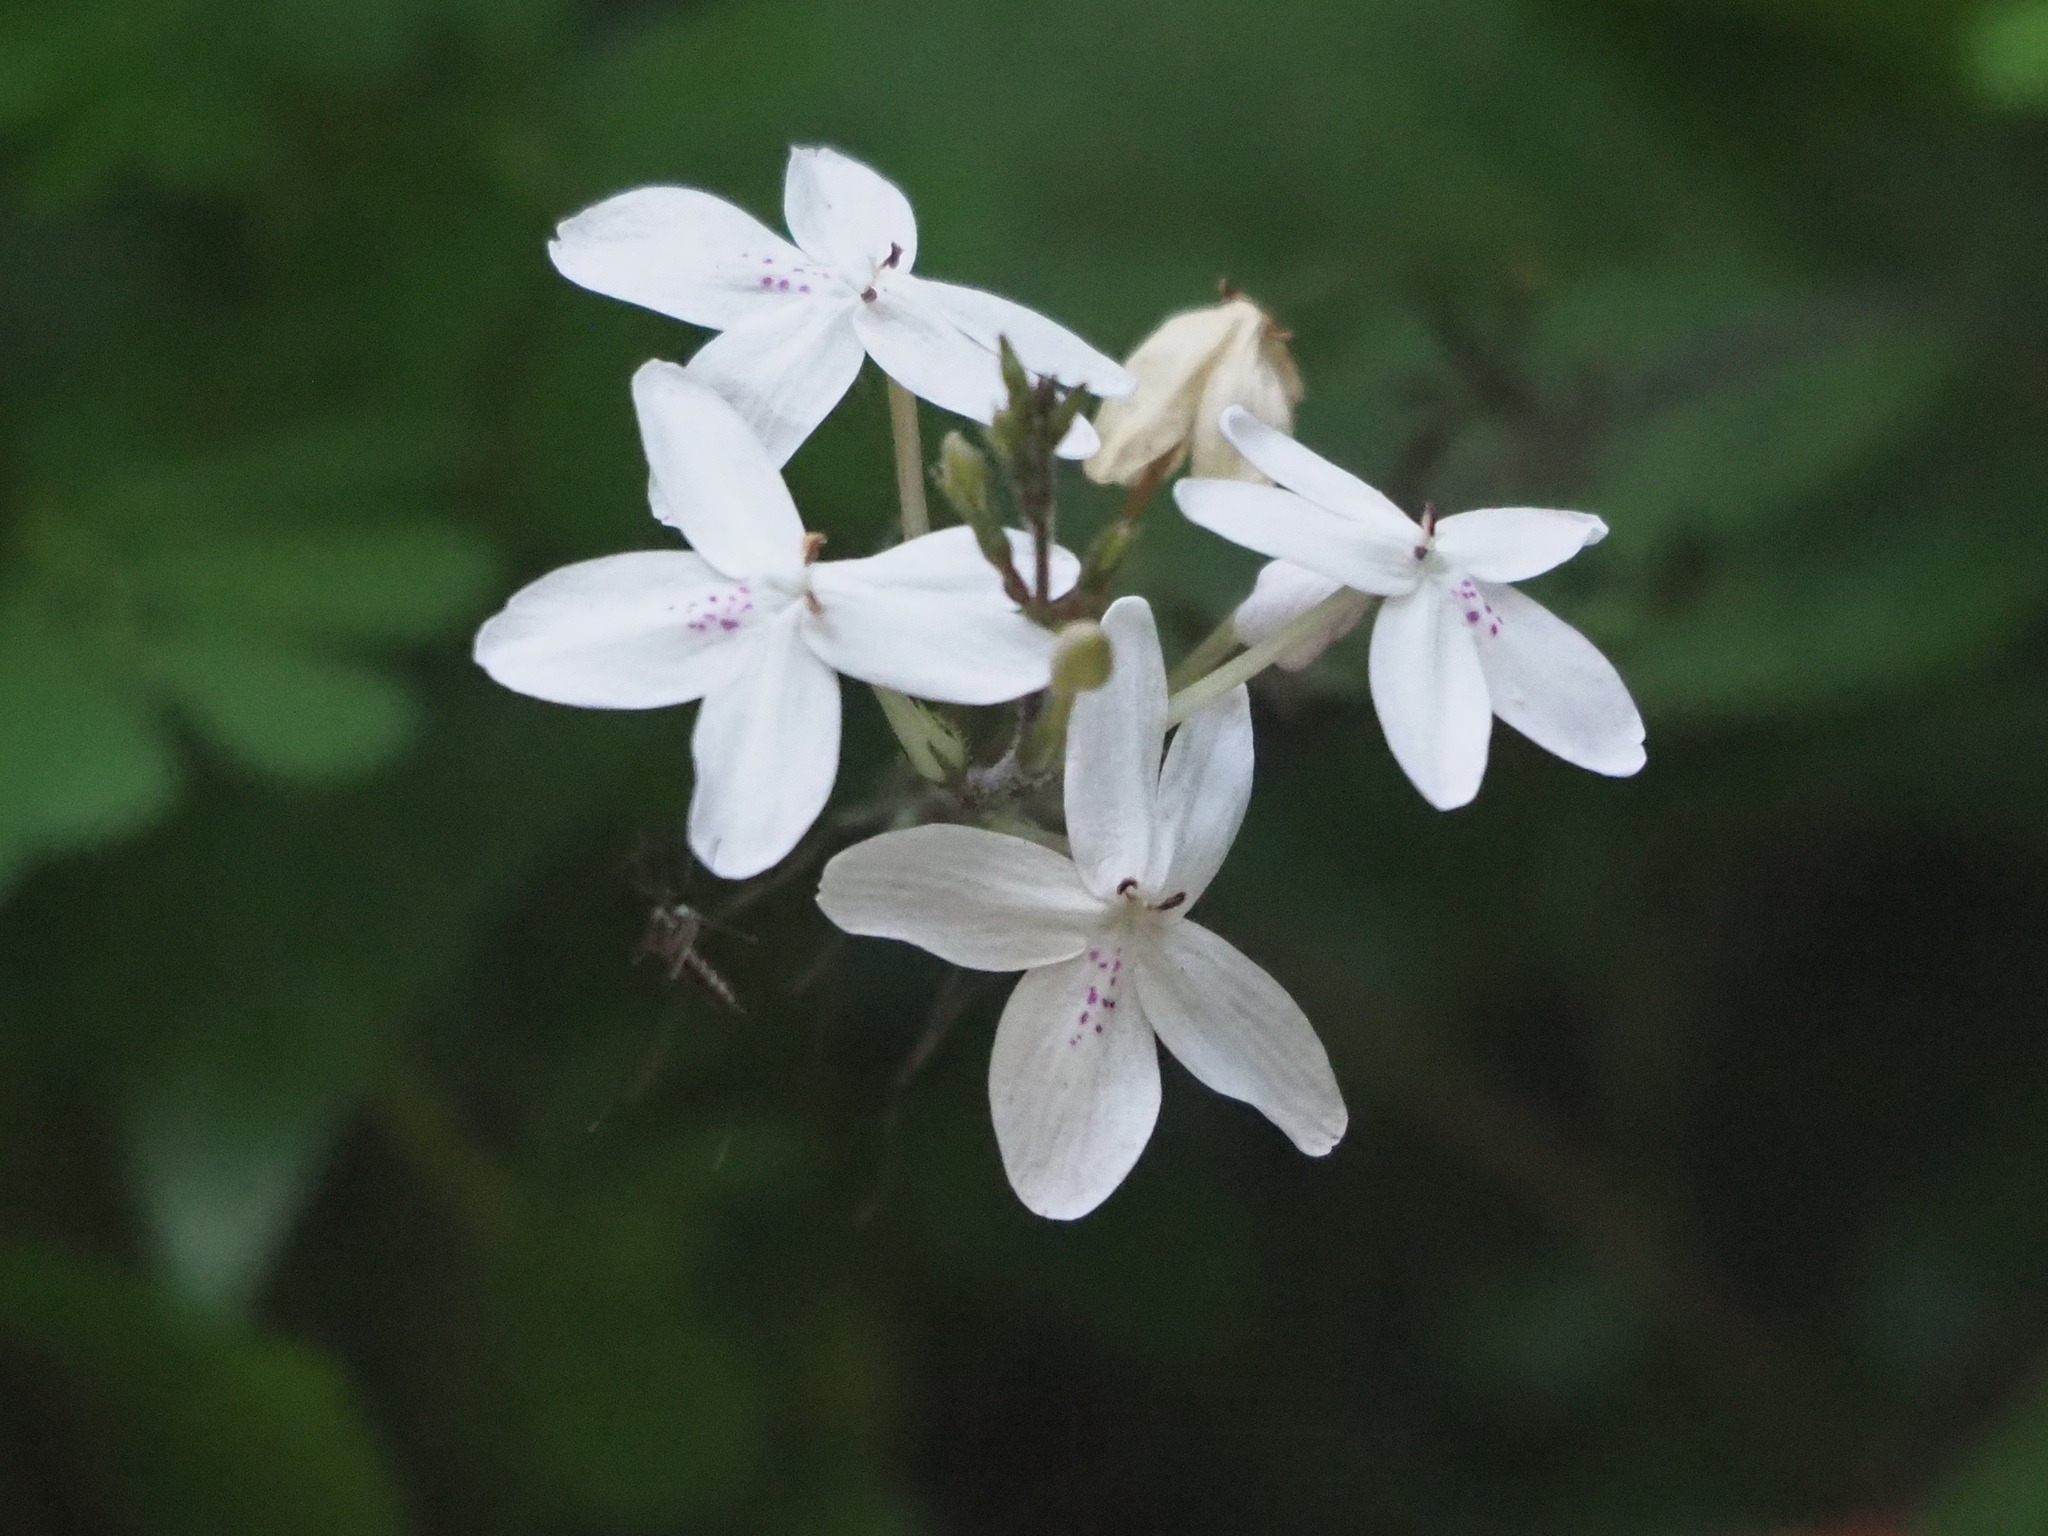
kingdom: Plantae
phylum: Tracheophyta
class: Magnoliopsida
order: Lamiales
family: Acanthaceae
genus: Pseuderanthemum
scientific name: Pseuderanthemum variabile
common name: Night and afternoon
